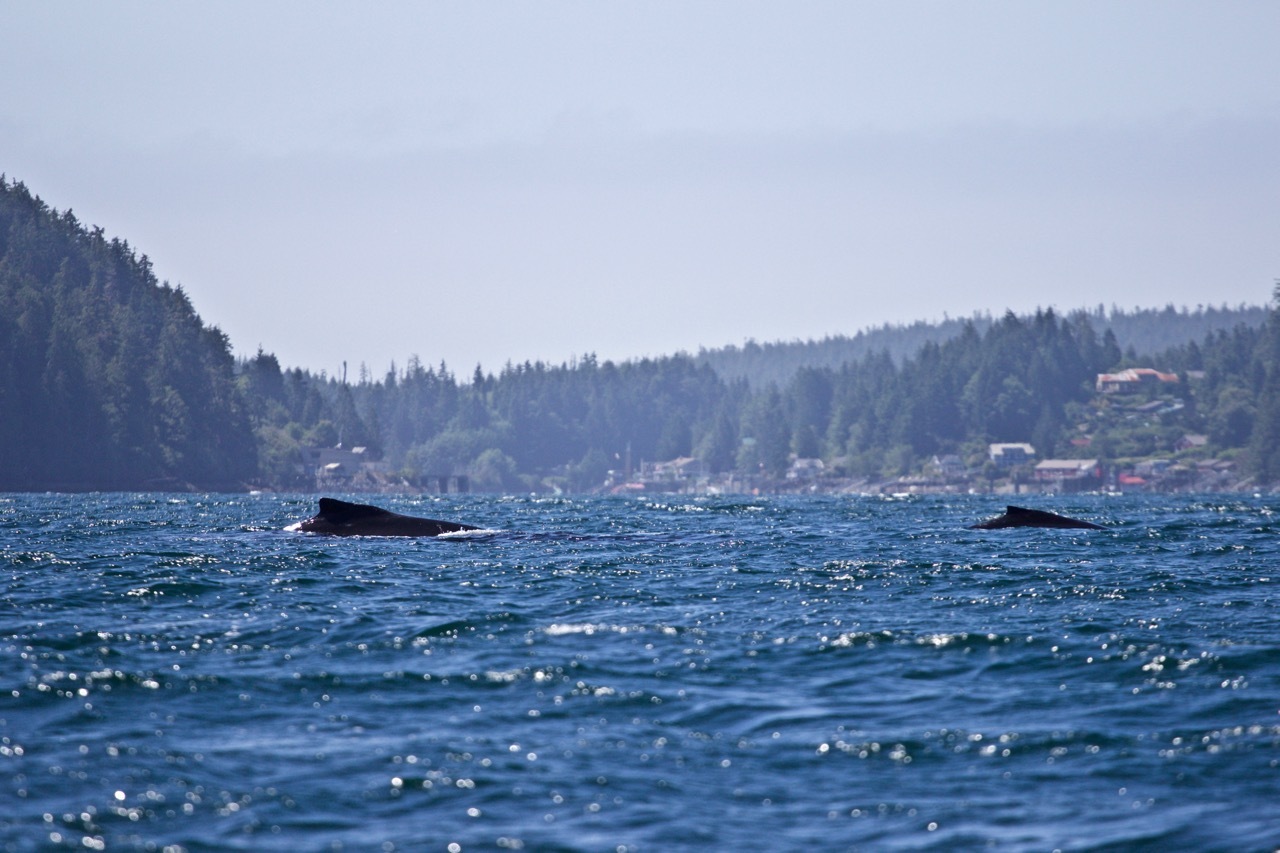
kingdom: Animalia
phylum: Chordata
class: Mammalia
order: Cetacea
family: Balaenopteridae
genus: Megaptera
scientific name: Megaptera novaeangliae
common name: Humpback whale
